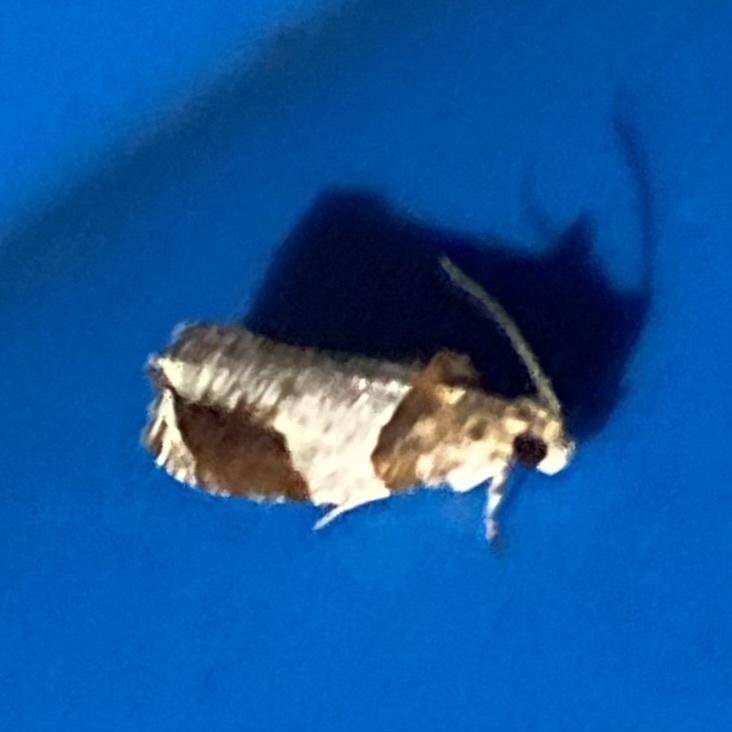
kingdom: Animalia
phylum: Arthropoda
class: Insecta
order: Lepidoptera
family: Tortricidae
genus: Olethreutes
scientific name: Olethreutes ferriferana
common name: Hydrangea leaftier moth
